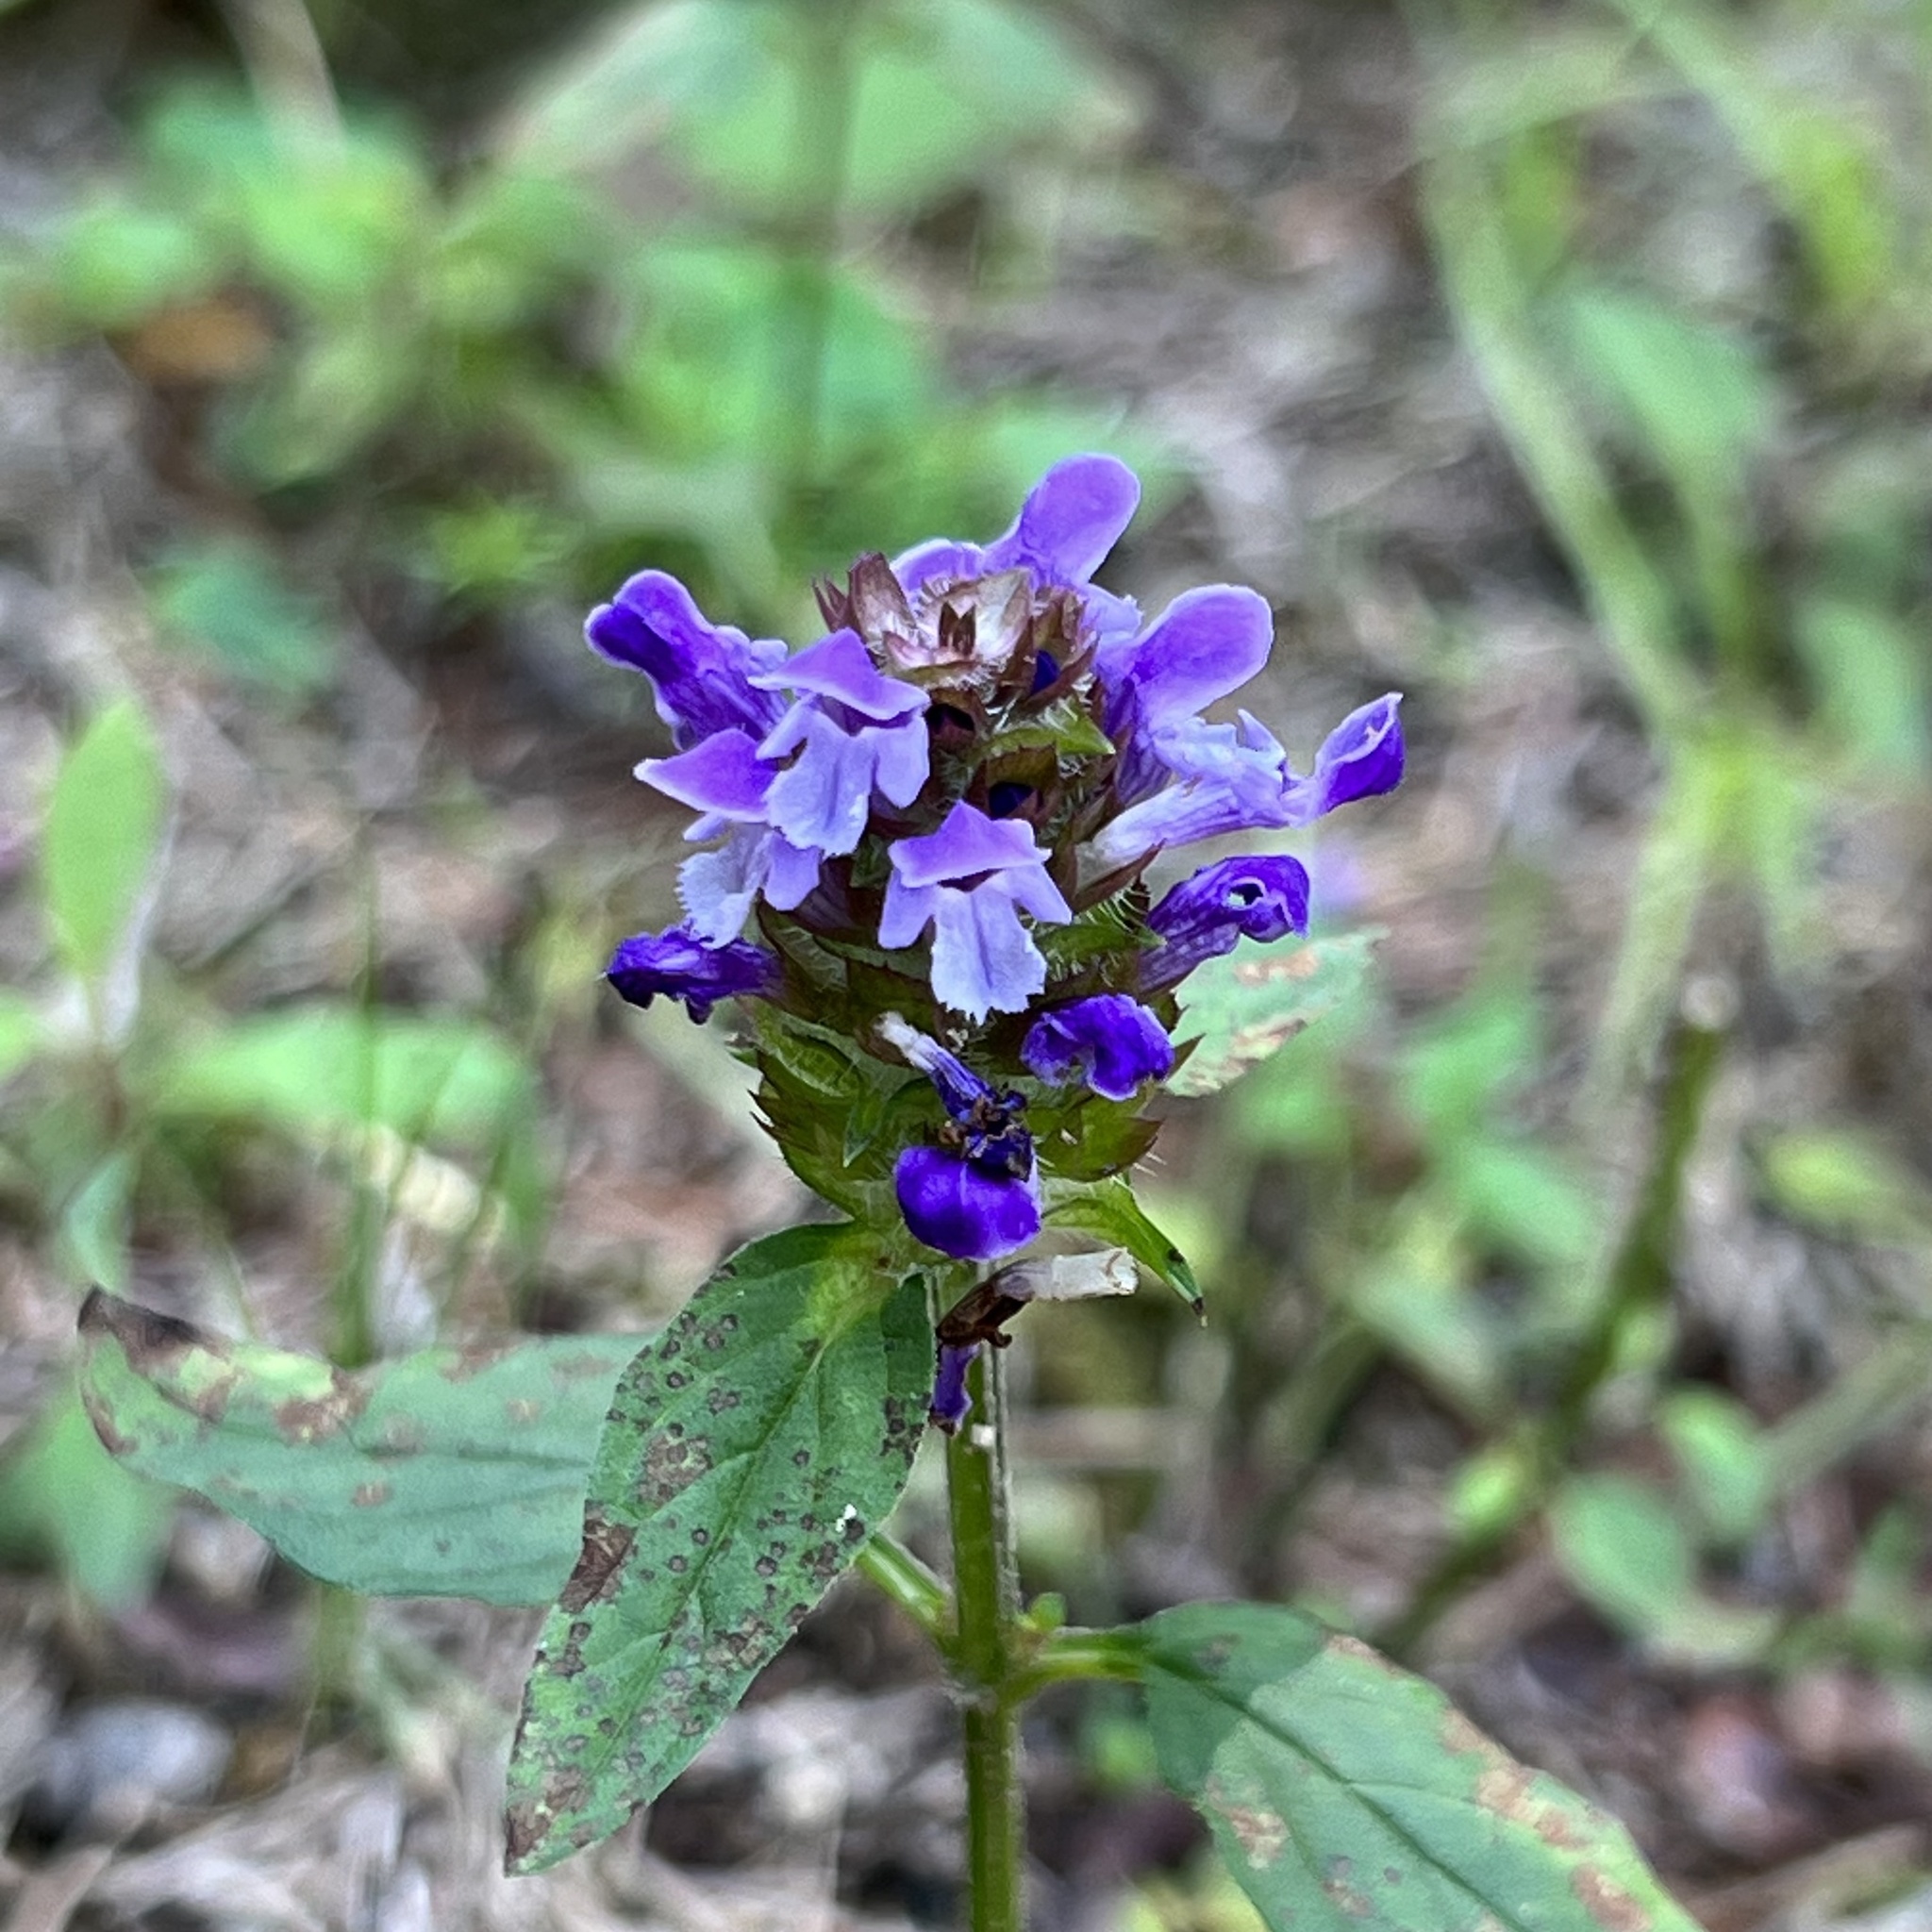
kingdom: Plantae
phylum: Tracheophyta
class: Magnoliopsida
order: Lamiales
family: Lamiaceae
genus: Prunella
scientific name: Prunella vulgaris
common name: Heal-all
